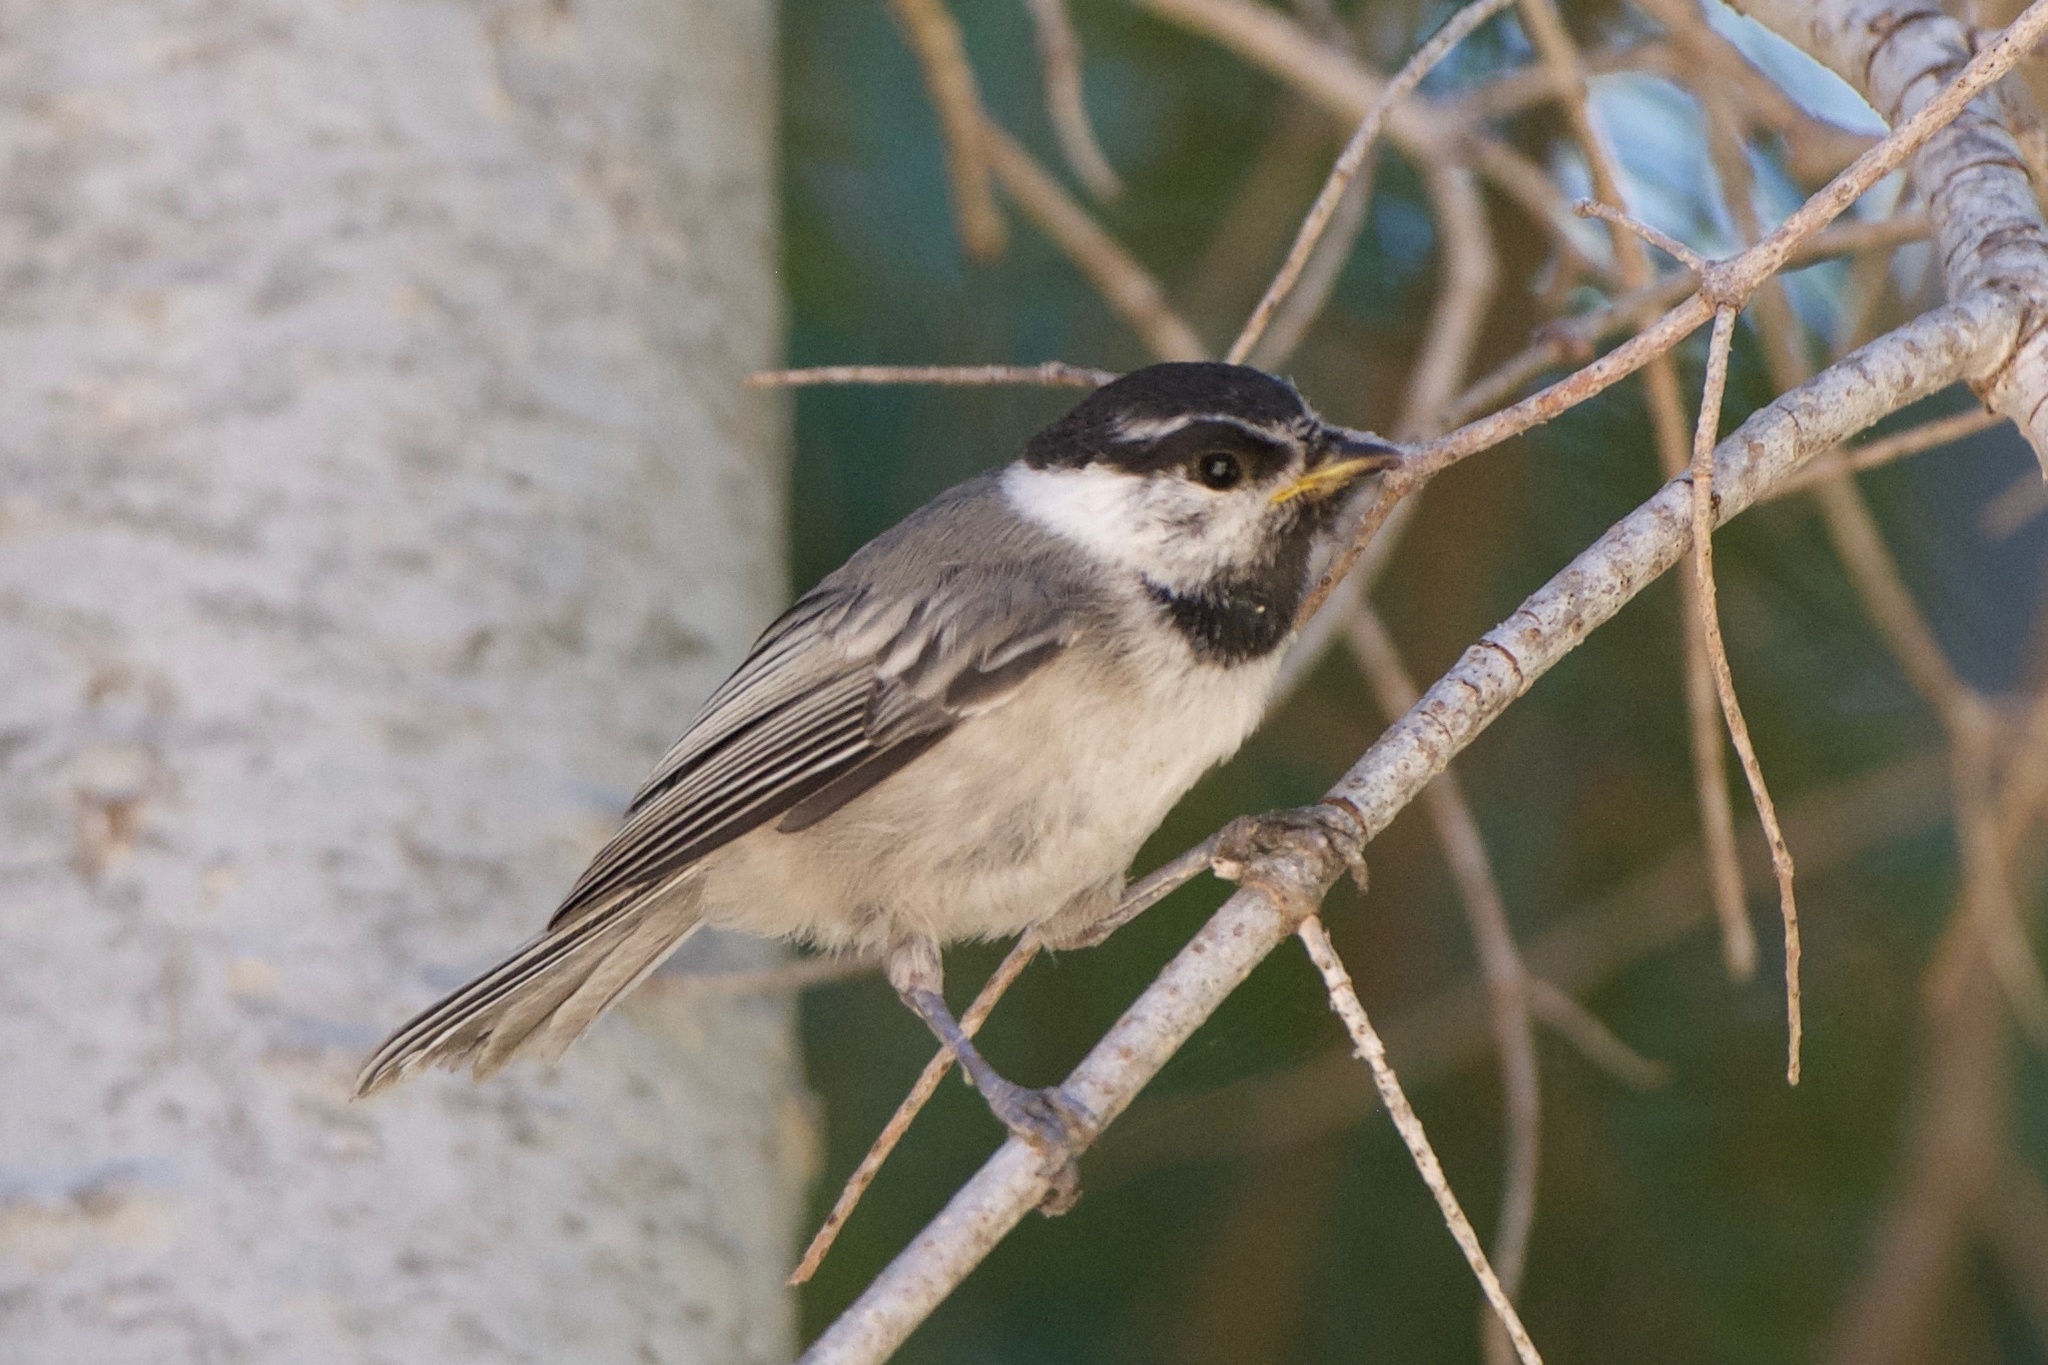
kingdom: Animalia
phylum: Chordata
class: Aves
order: Passeriformes
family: Paridae
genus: Poecile
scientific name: Poecile gambeli
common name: Mountain chickadee
